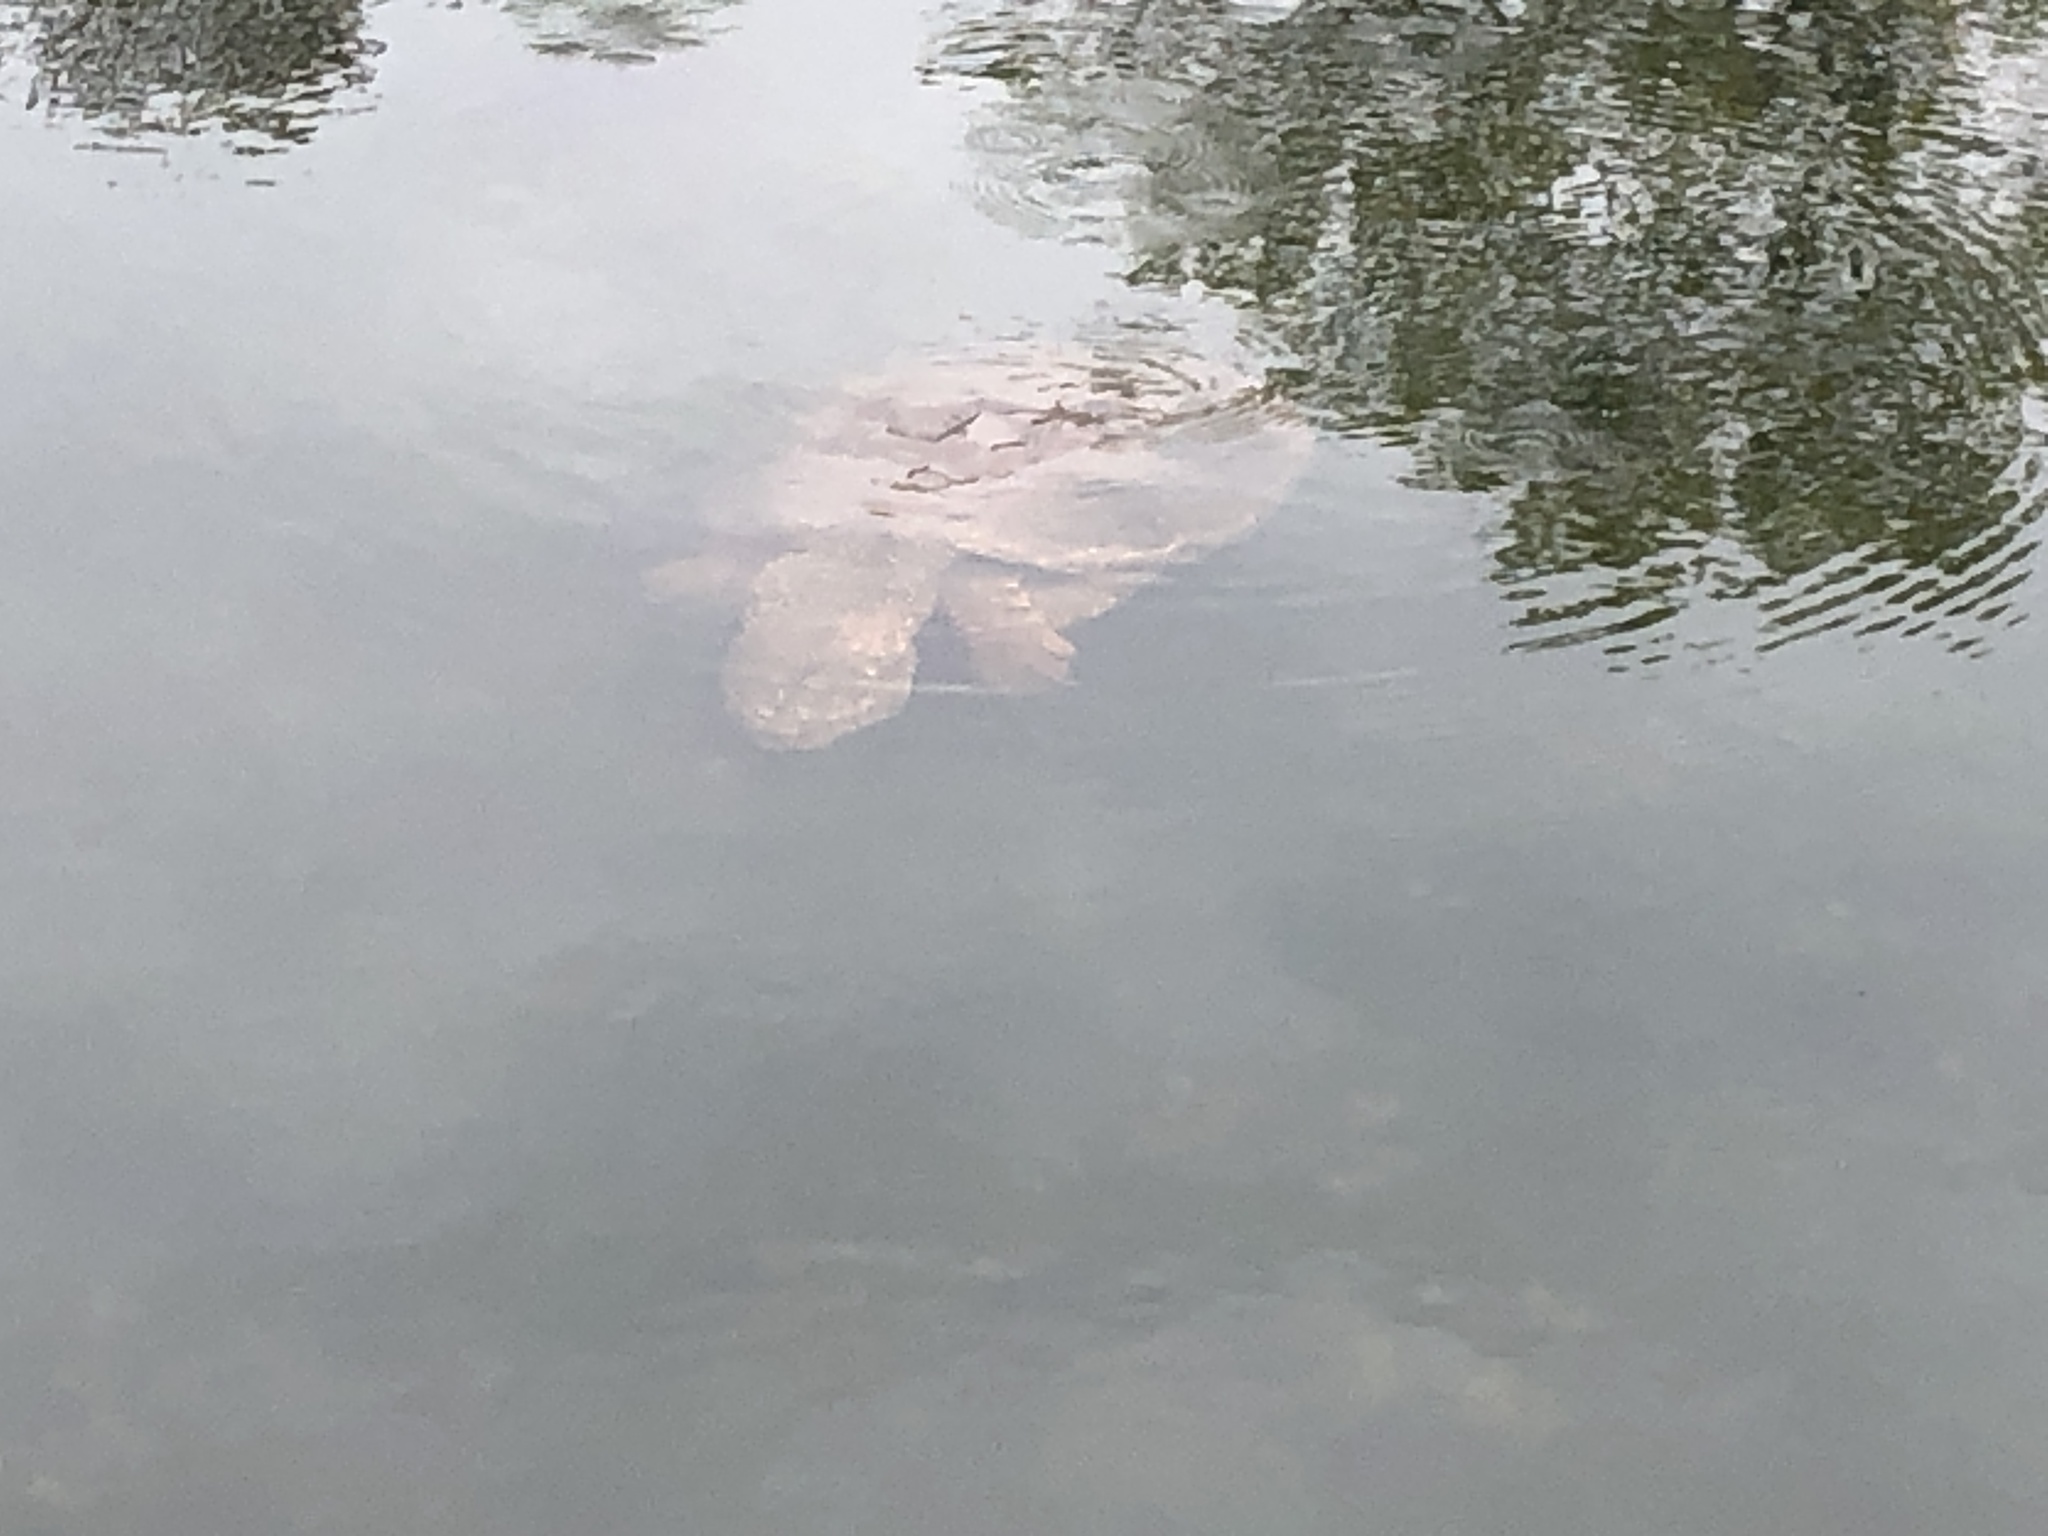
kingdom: Animalia
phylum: Chordata
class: Testudines
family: Chelydridae
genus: Chelydra
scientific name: Chelydra serpentina
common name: Common snapping turtle
